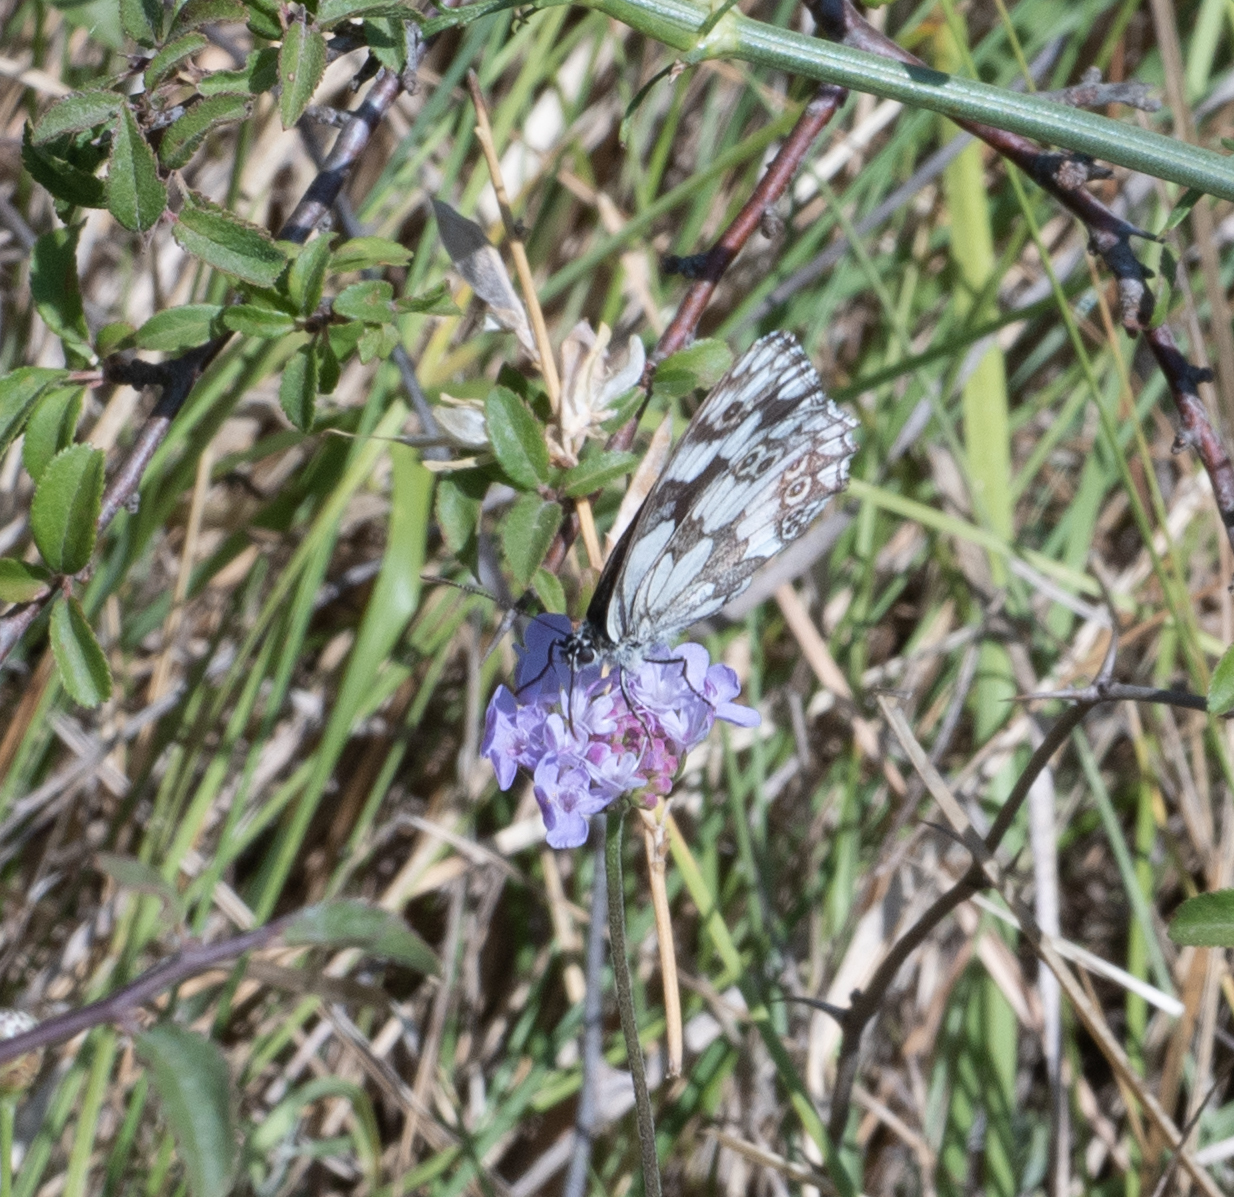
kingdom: Animalia
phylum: Arthropoda
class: Insecta
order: Lepidoptera
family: Nymphalidae
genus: Melanargia
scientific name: Melanargia galathea
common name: Marbled white
